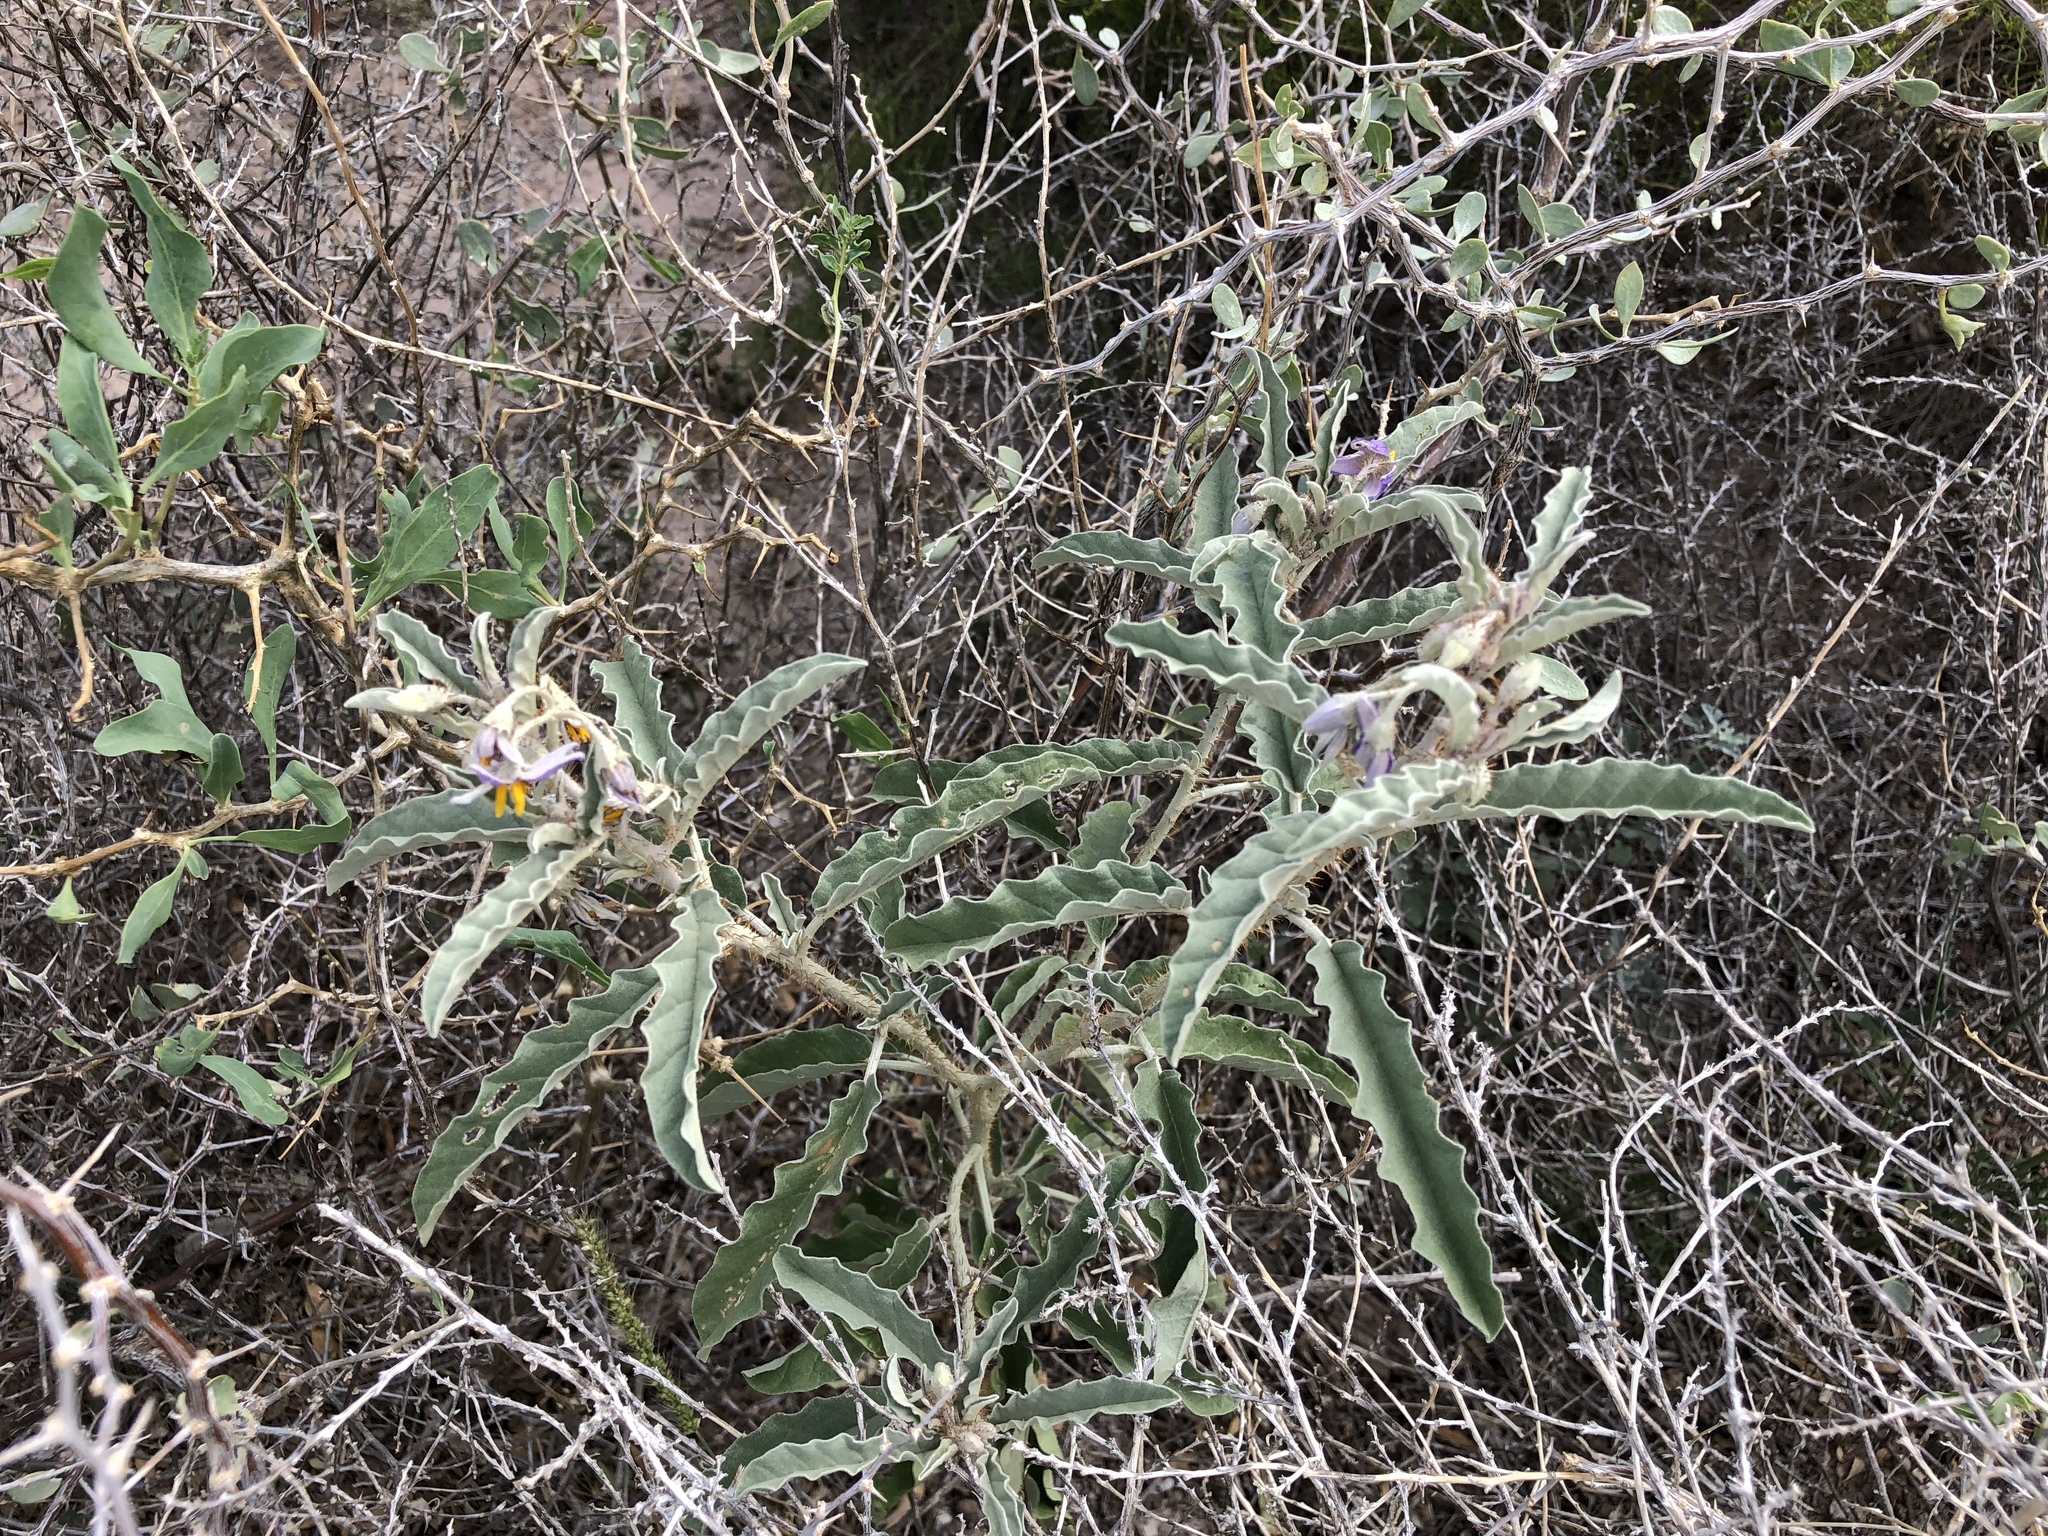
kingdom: Plantae
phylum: Tracheophyta
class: Magnoliopsida
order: Solanales
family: Solanaceae
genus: Solanum
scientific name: Solanum elaeagnifolium
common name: Silverleaf nightshade
